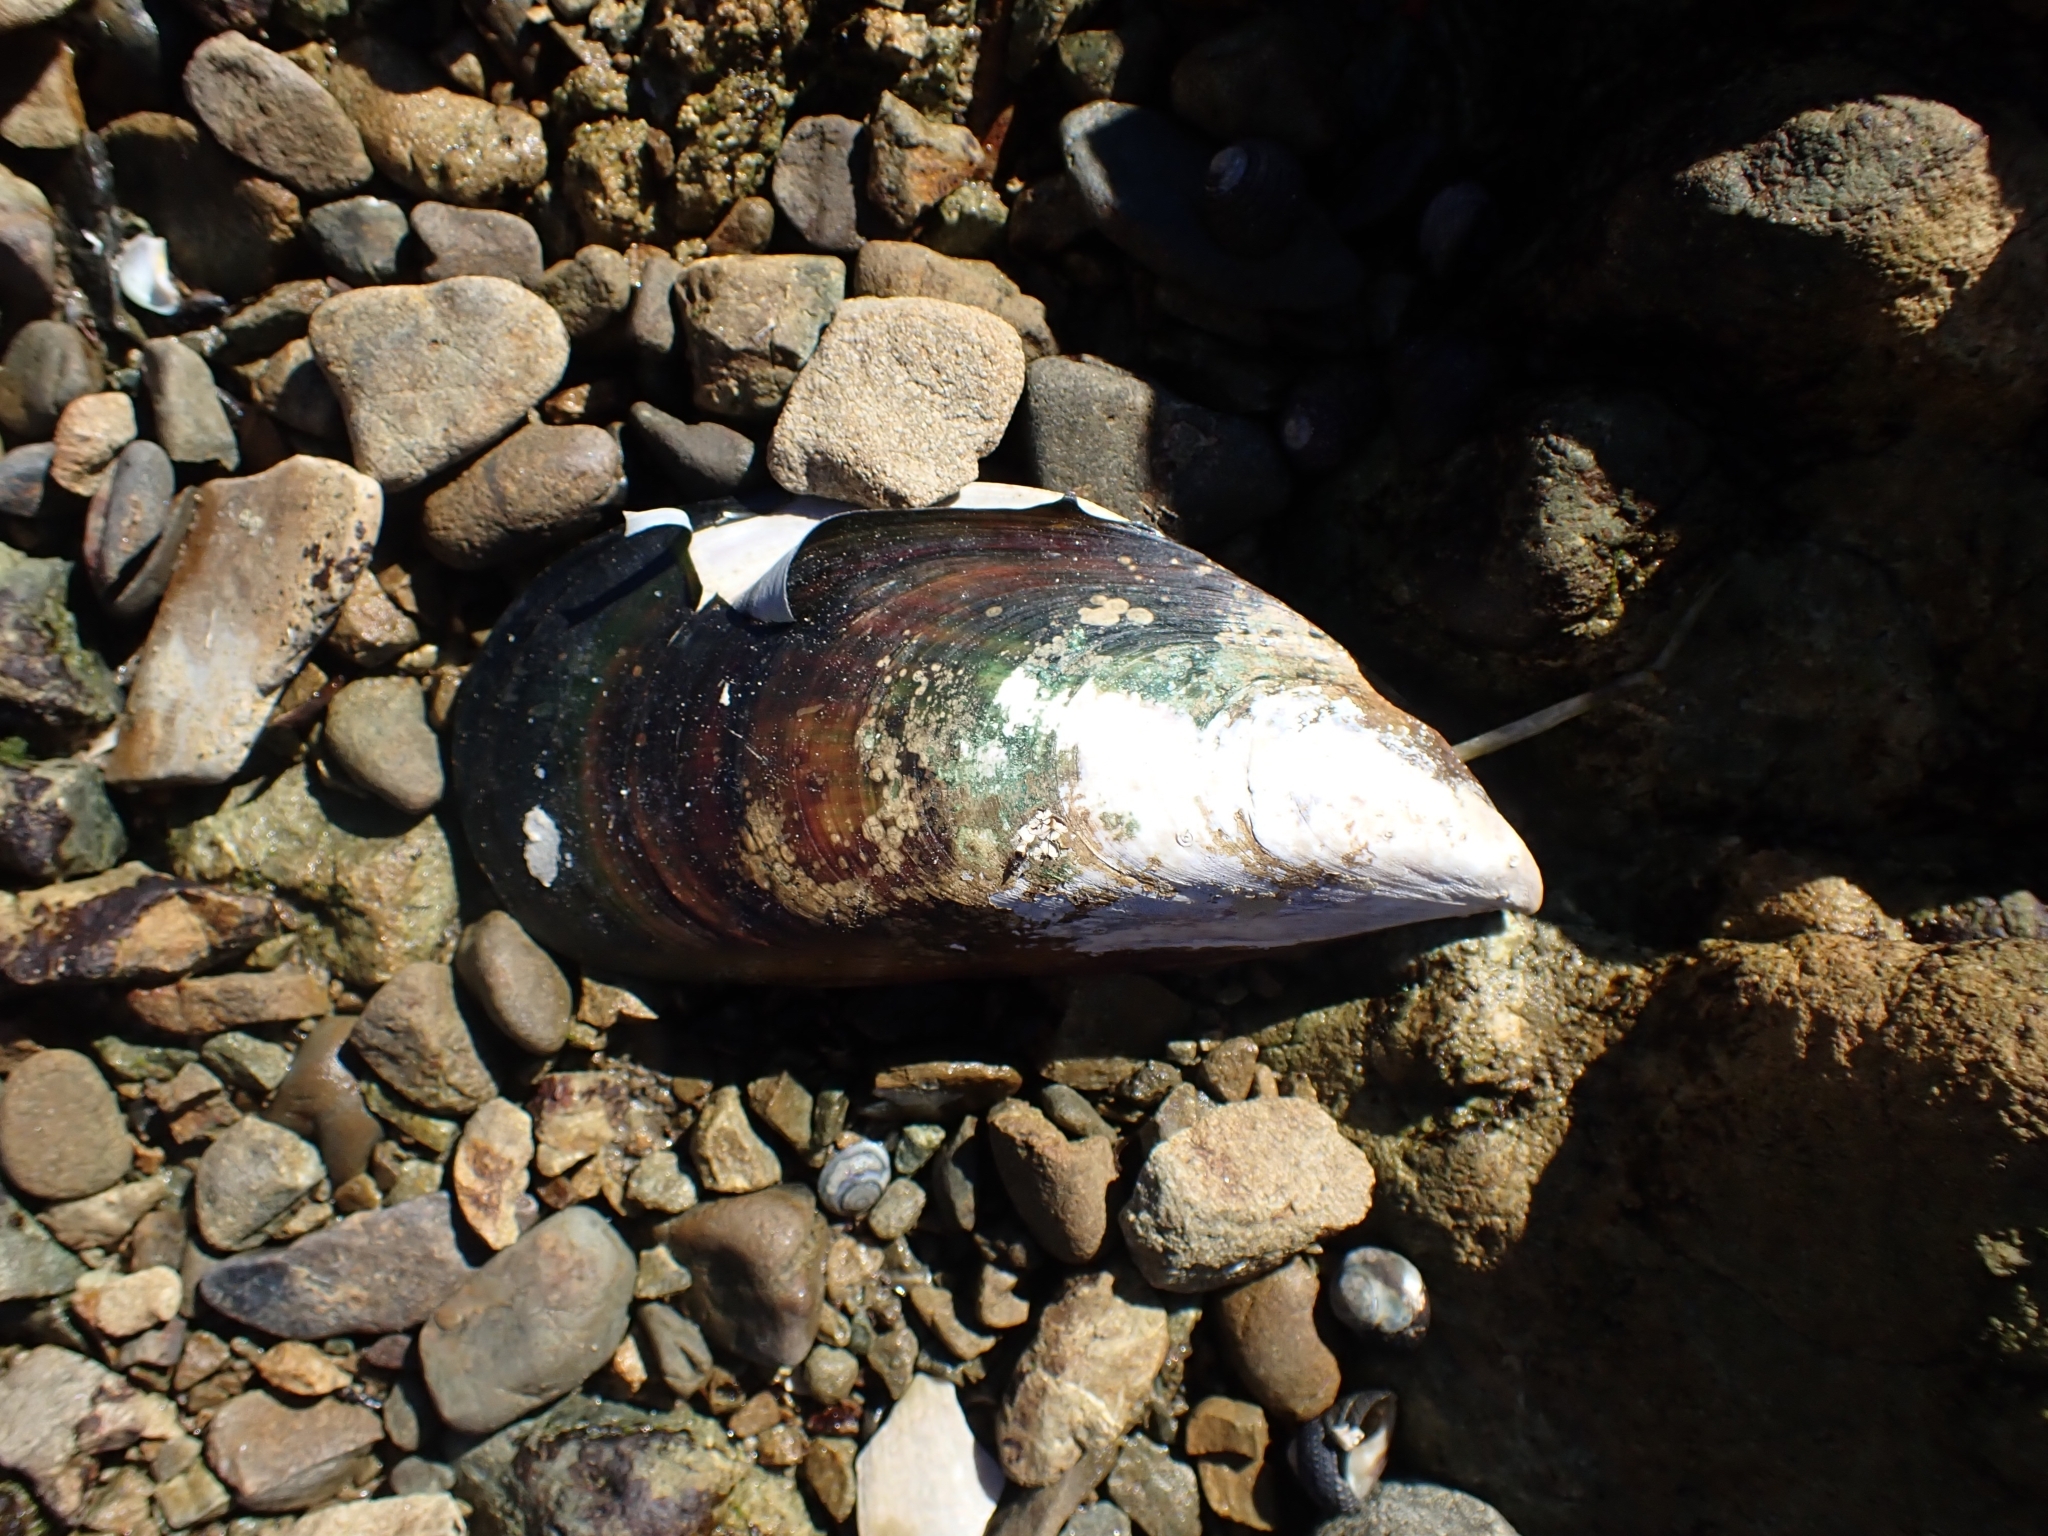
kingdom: Animalia
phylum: Mollusca
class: Bivalvia
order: Mytilida
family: Mytilidae
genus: Perna
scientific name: Perna canaliculus
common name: New zealand greenshelltm
